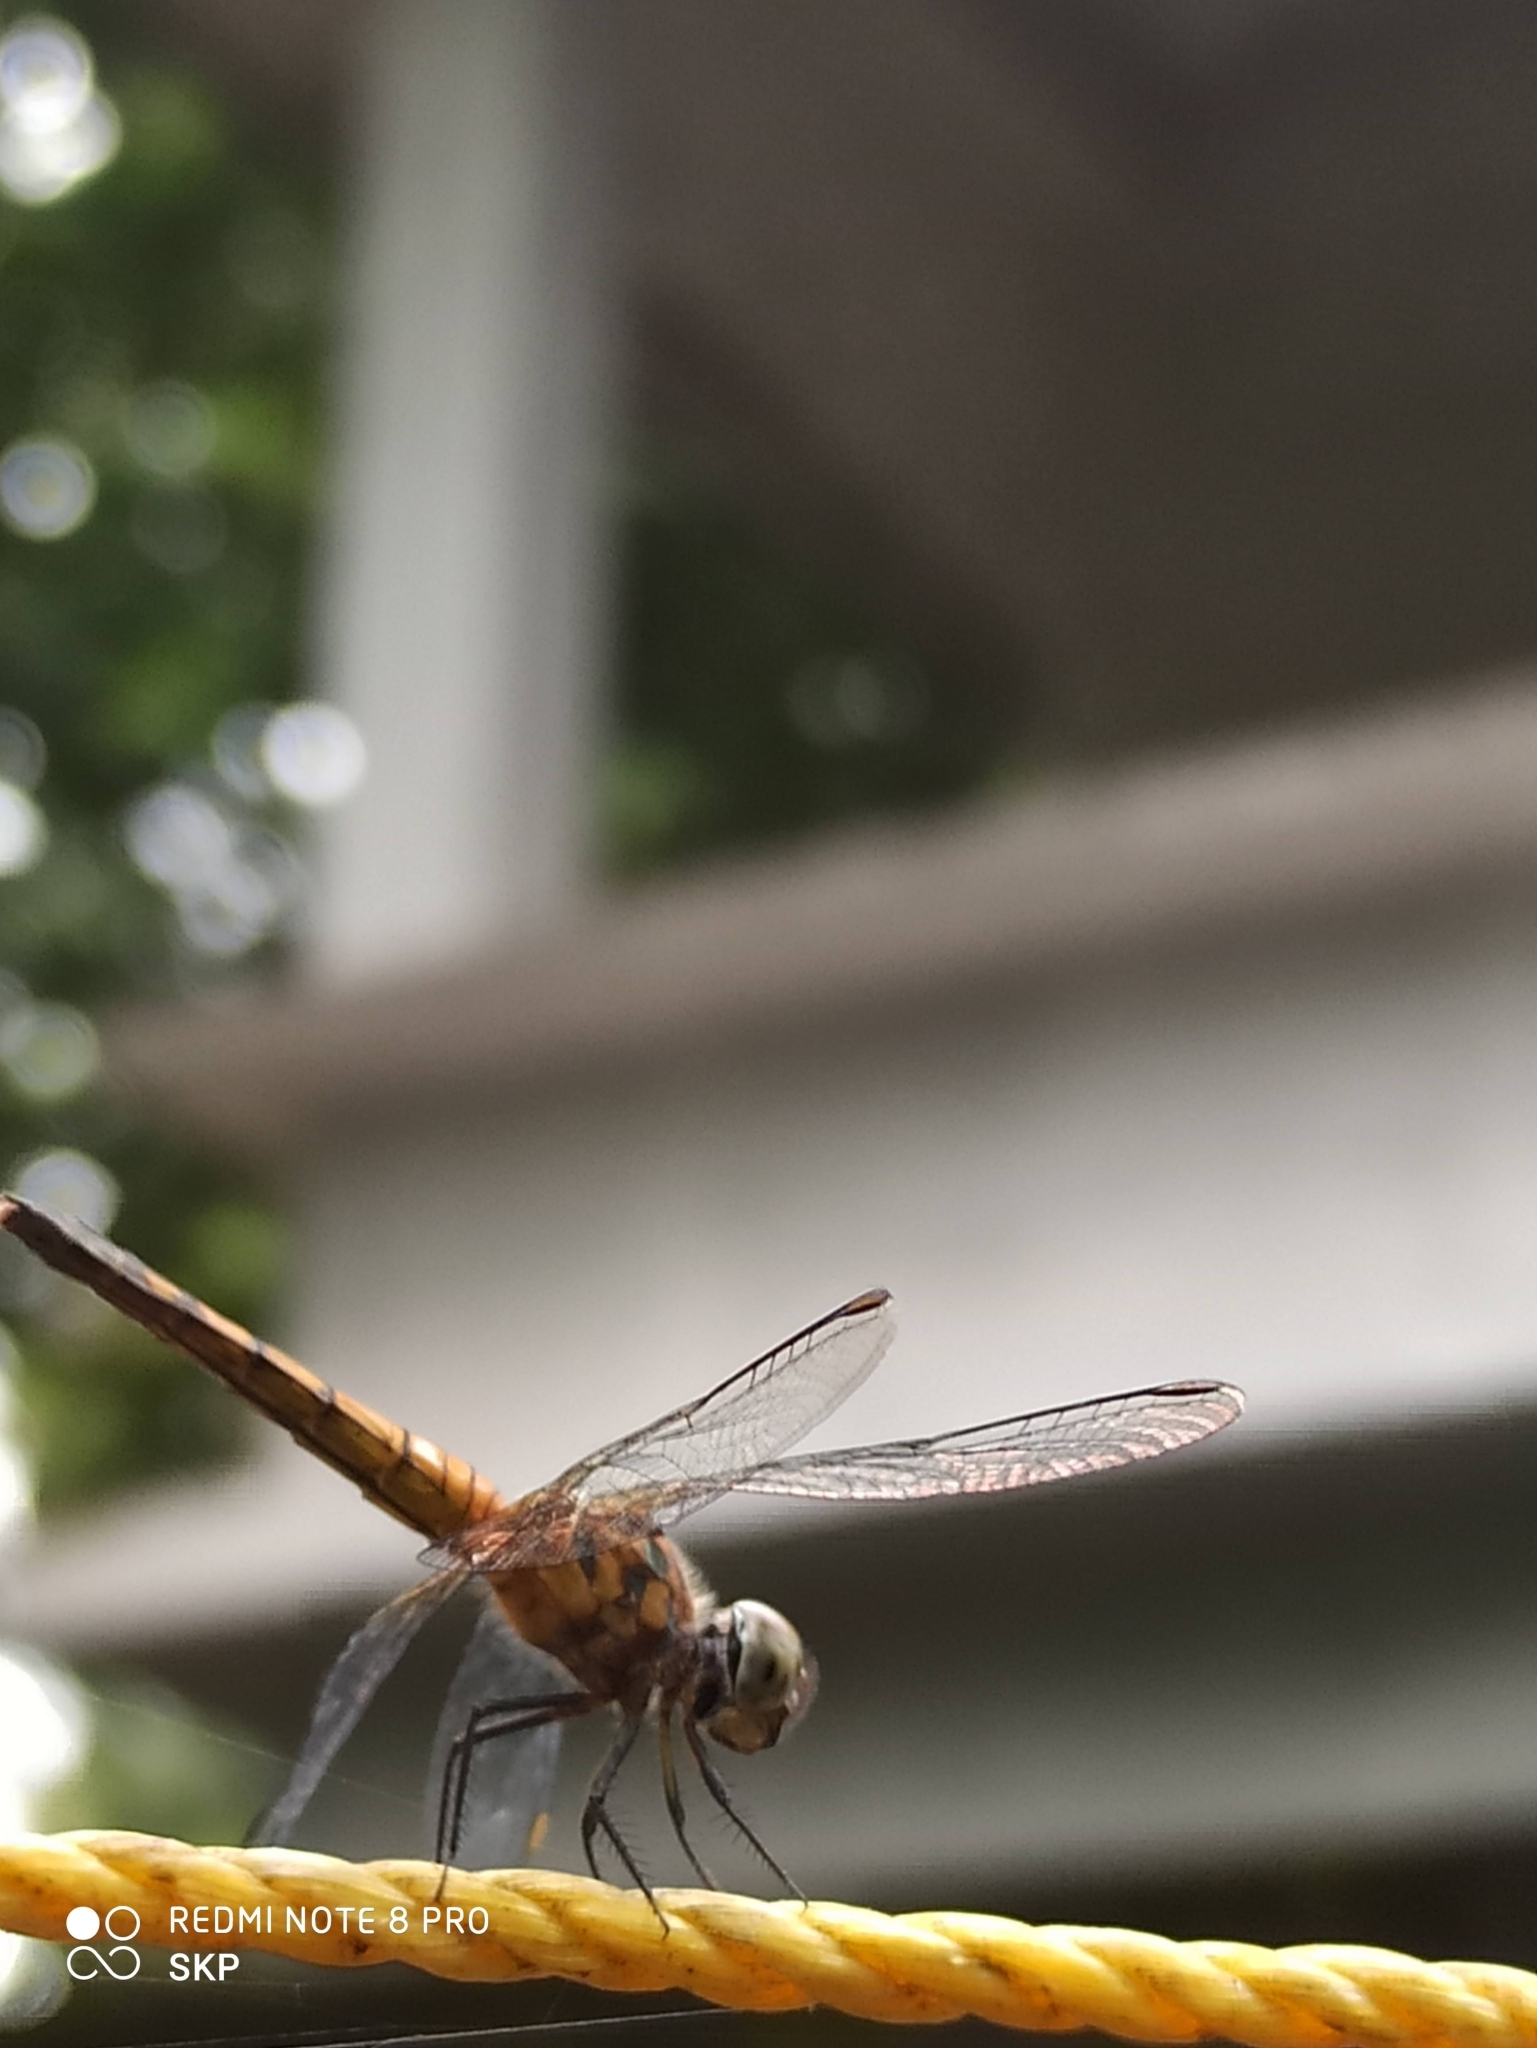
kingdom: Animalia
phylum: Arthropoda
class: Insecta
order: Odonata
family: Libellulidae
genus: Brachydiplax
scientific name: Brachydiplax chalybea
